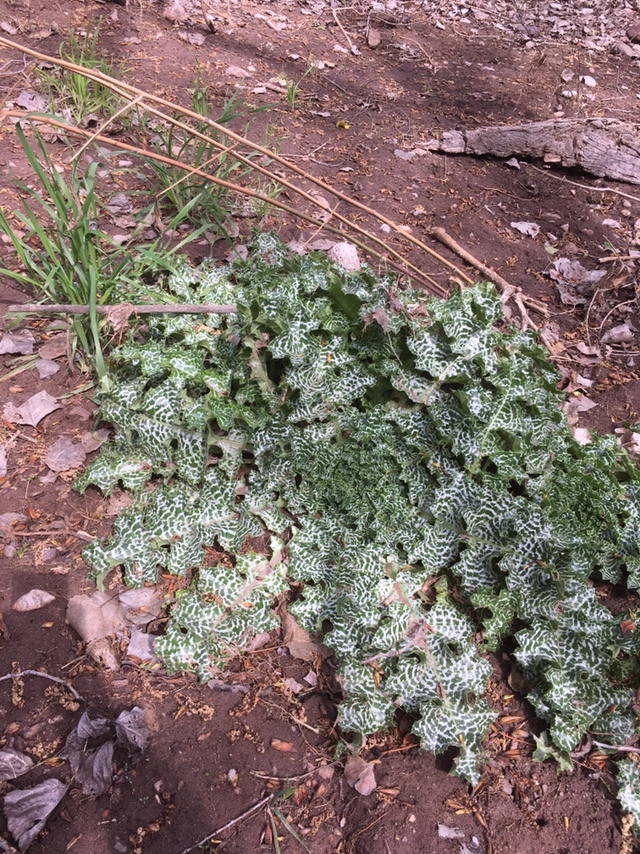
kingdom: Plantae
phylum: Tracheophyta
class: Magnoliopsida
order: Asterales
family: Asteraceae
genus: Silybum
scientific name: Silybum marianum
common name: Milk thistle
